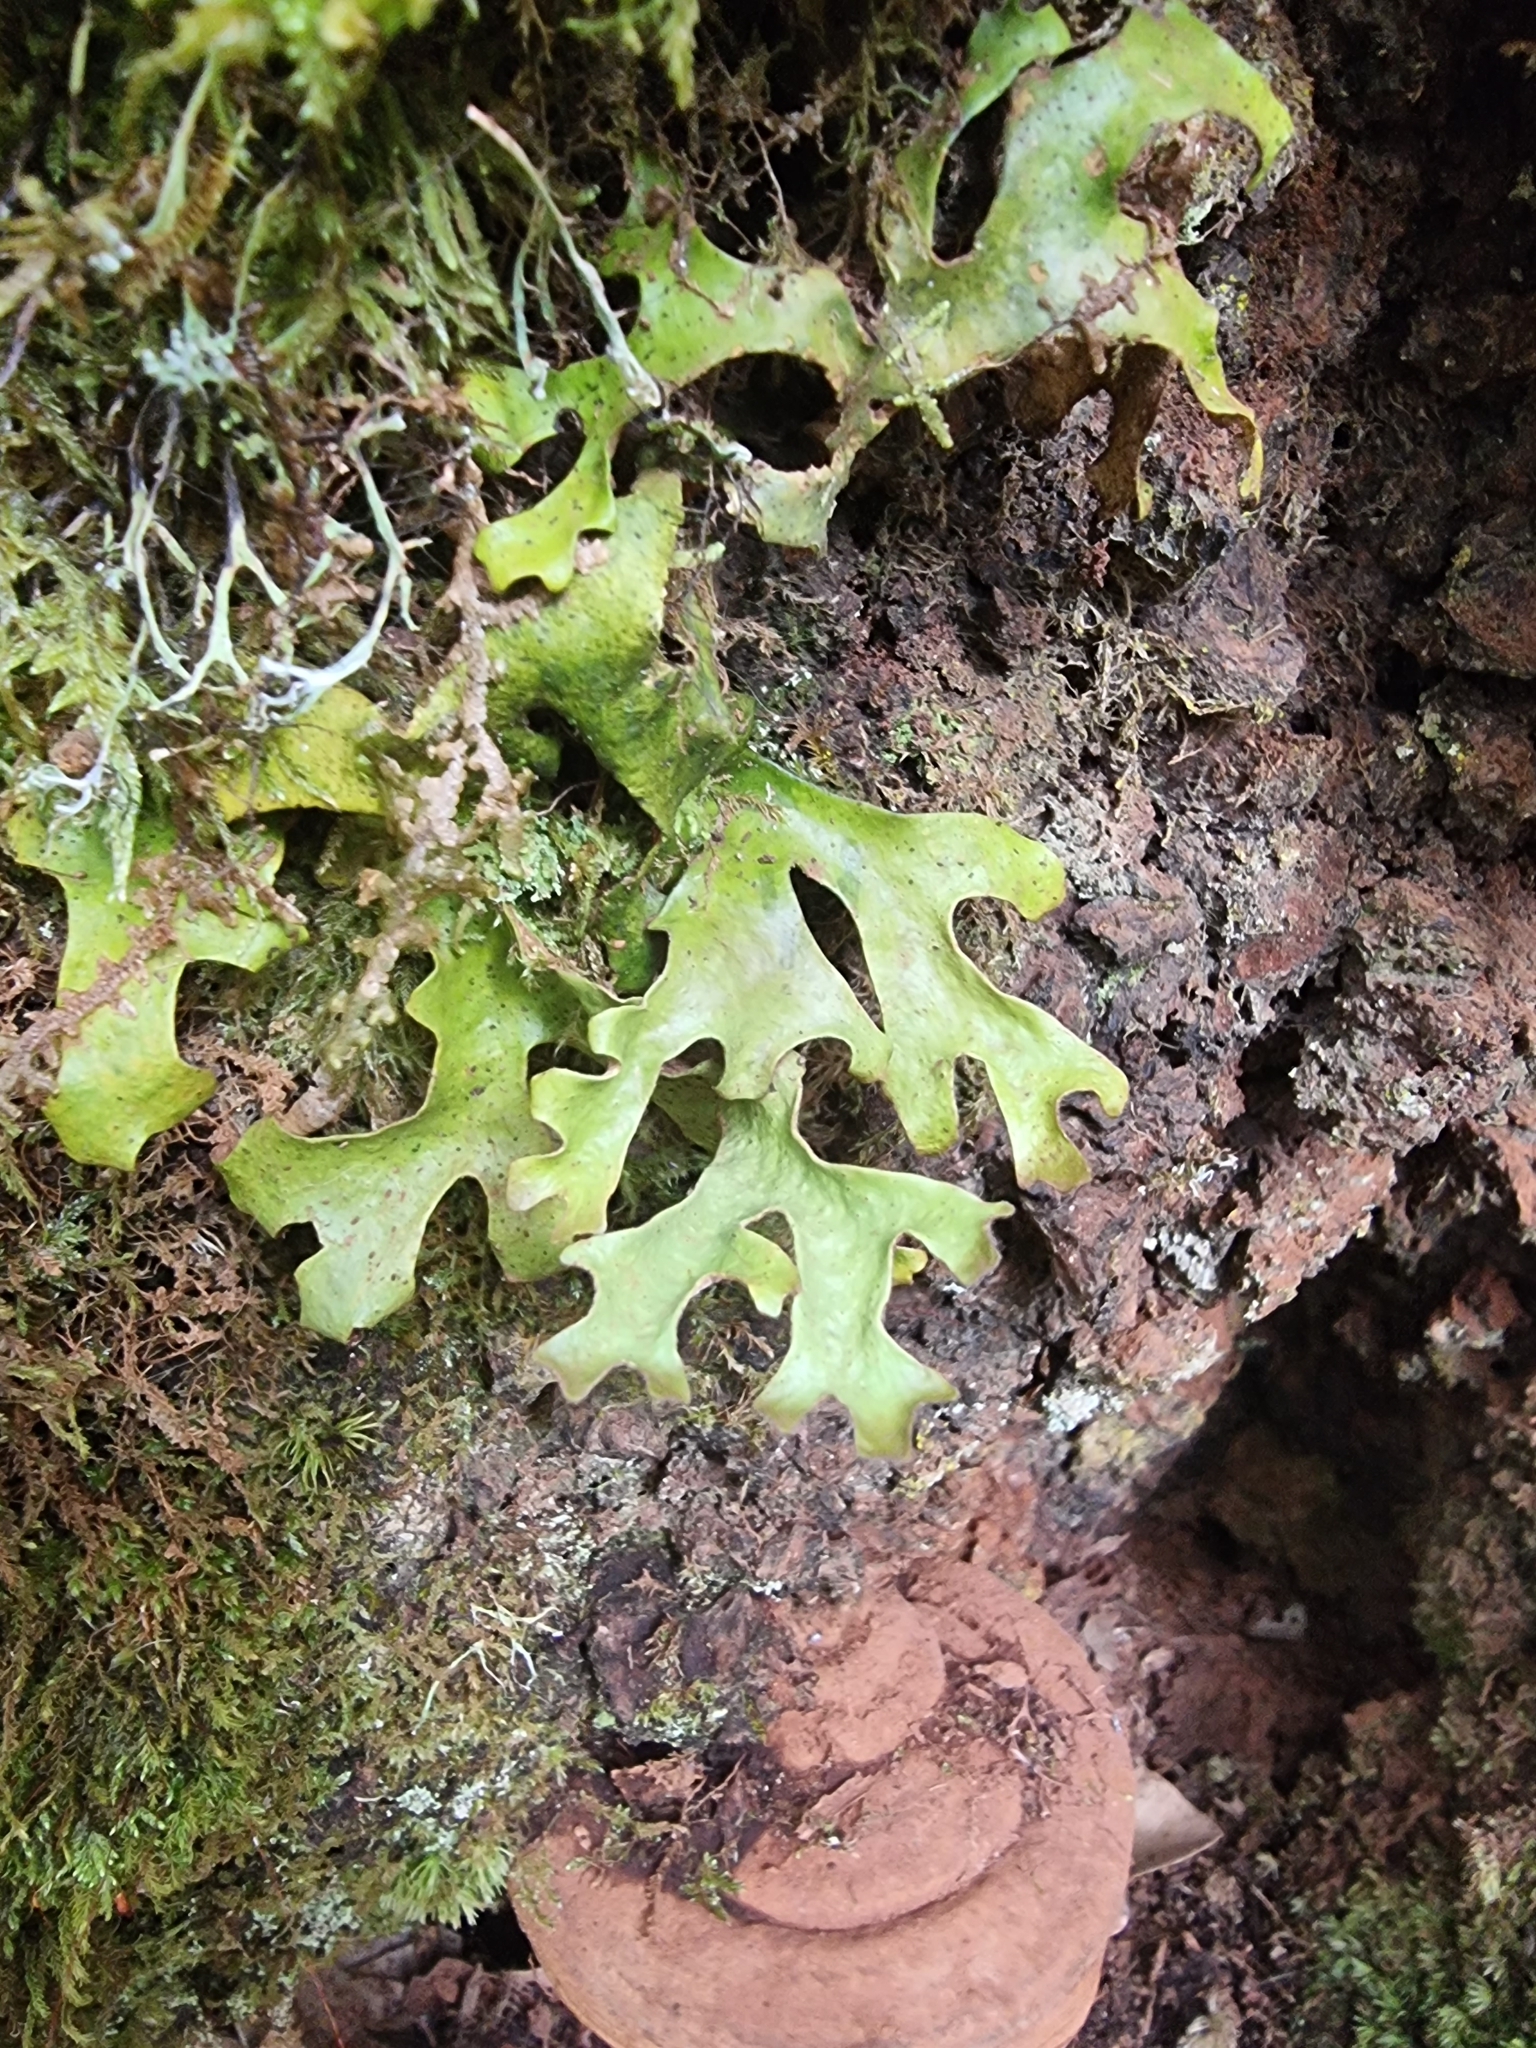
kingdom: Fungi
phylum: Ascomycota
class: Lecanoromycetes
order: Peltigerales
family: Lobariaceae
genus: Sticta
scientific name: Sticta canariensis
